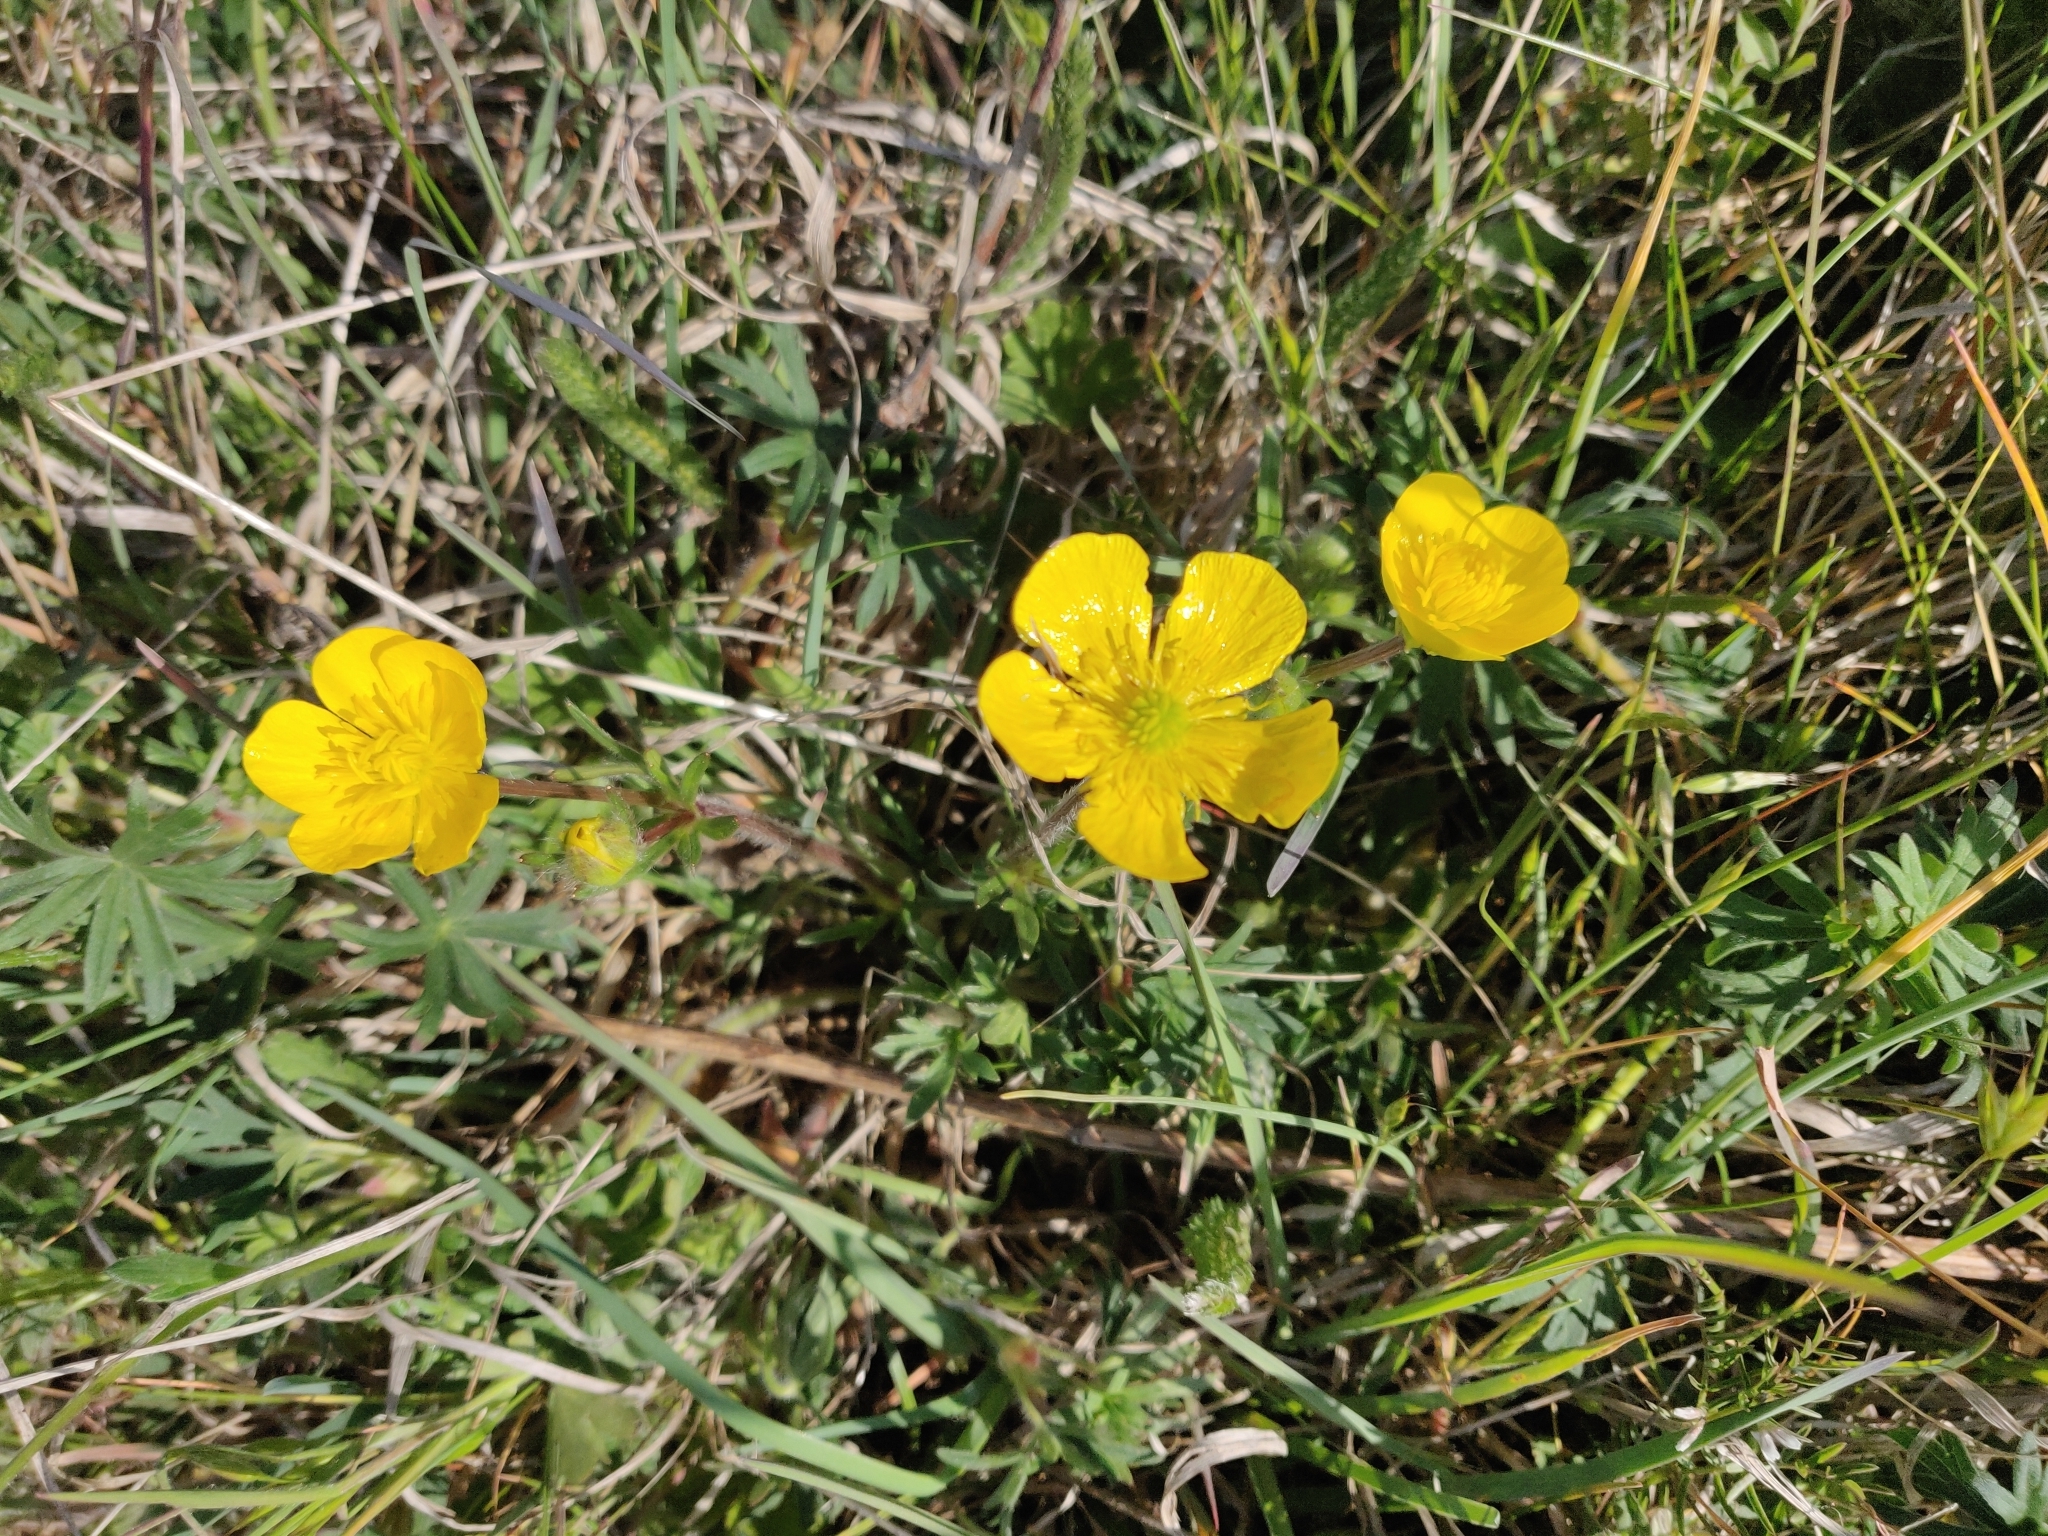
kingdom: Plantae
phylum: Tracheophyta
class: Magnoliopsida
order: Ranunculales
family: Ranunculaceae
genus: Ranunculus
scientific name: Ranunculus bulbosus
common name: Bulbous buttercup
